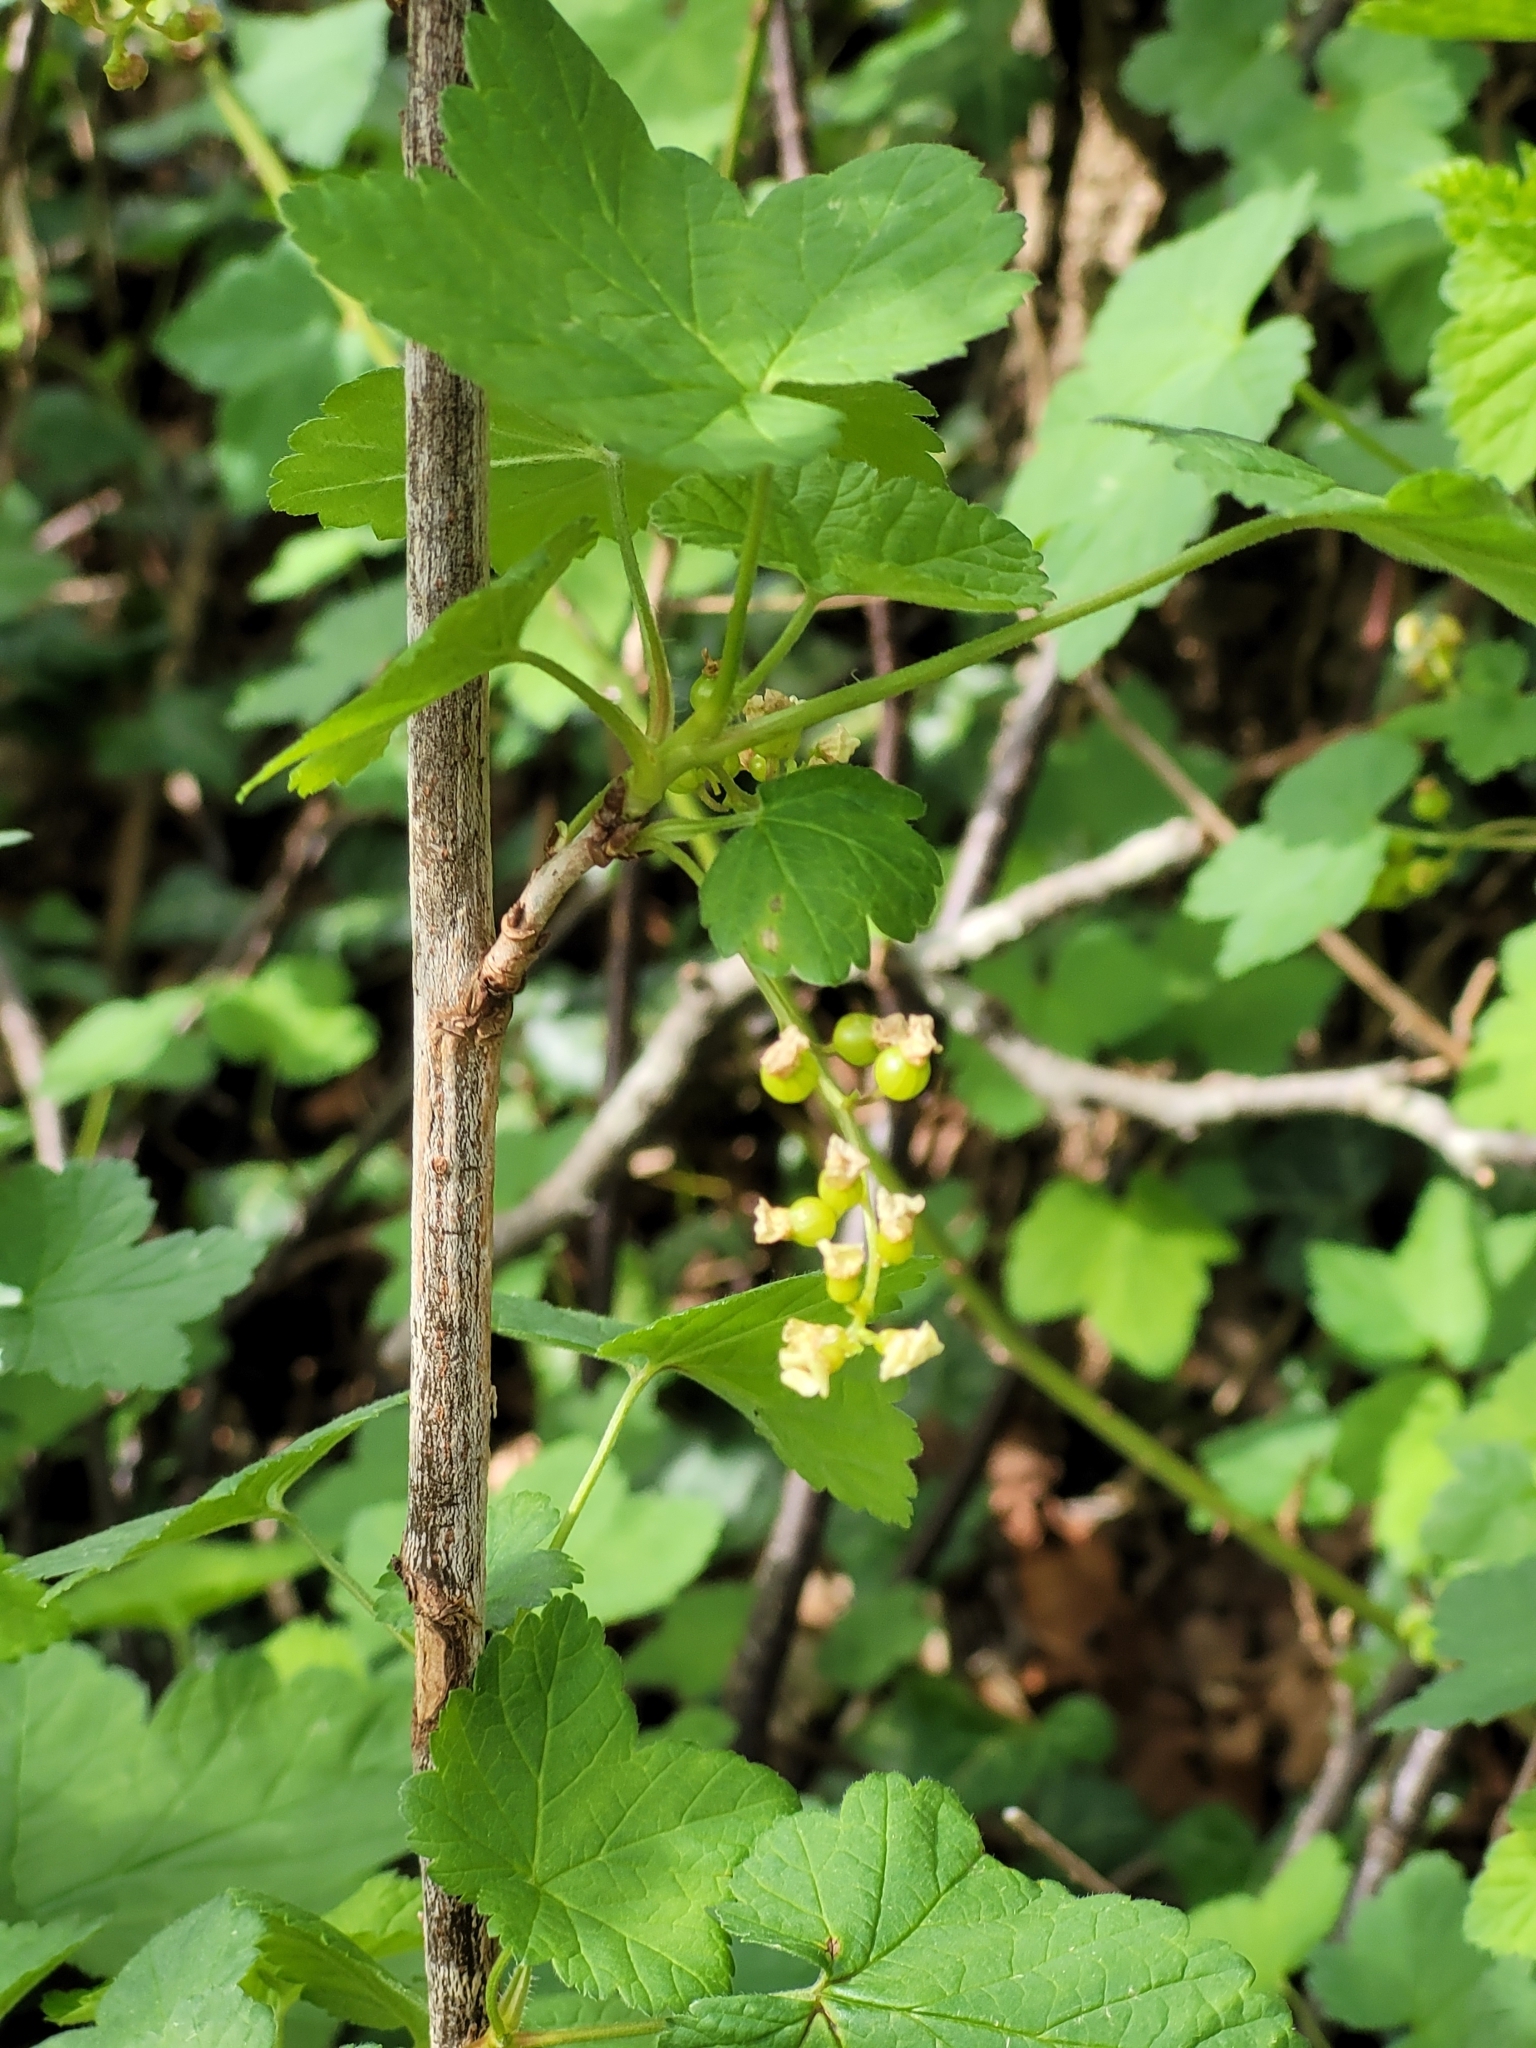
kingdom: Plantae
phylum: Tracheophyta
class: Magnoliopsida
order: Saxifragales
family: Grossulariaceae
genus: Ribes
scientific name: Ribes rubrum
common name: Red currant
